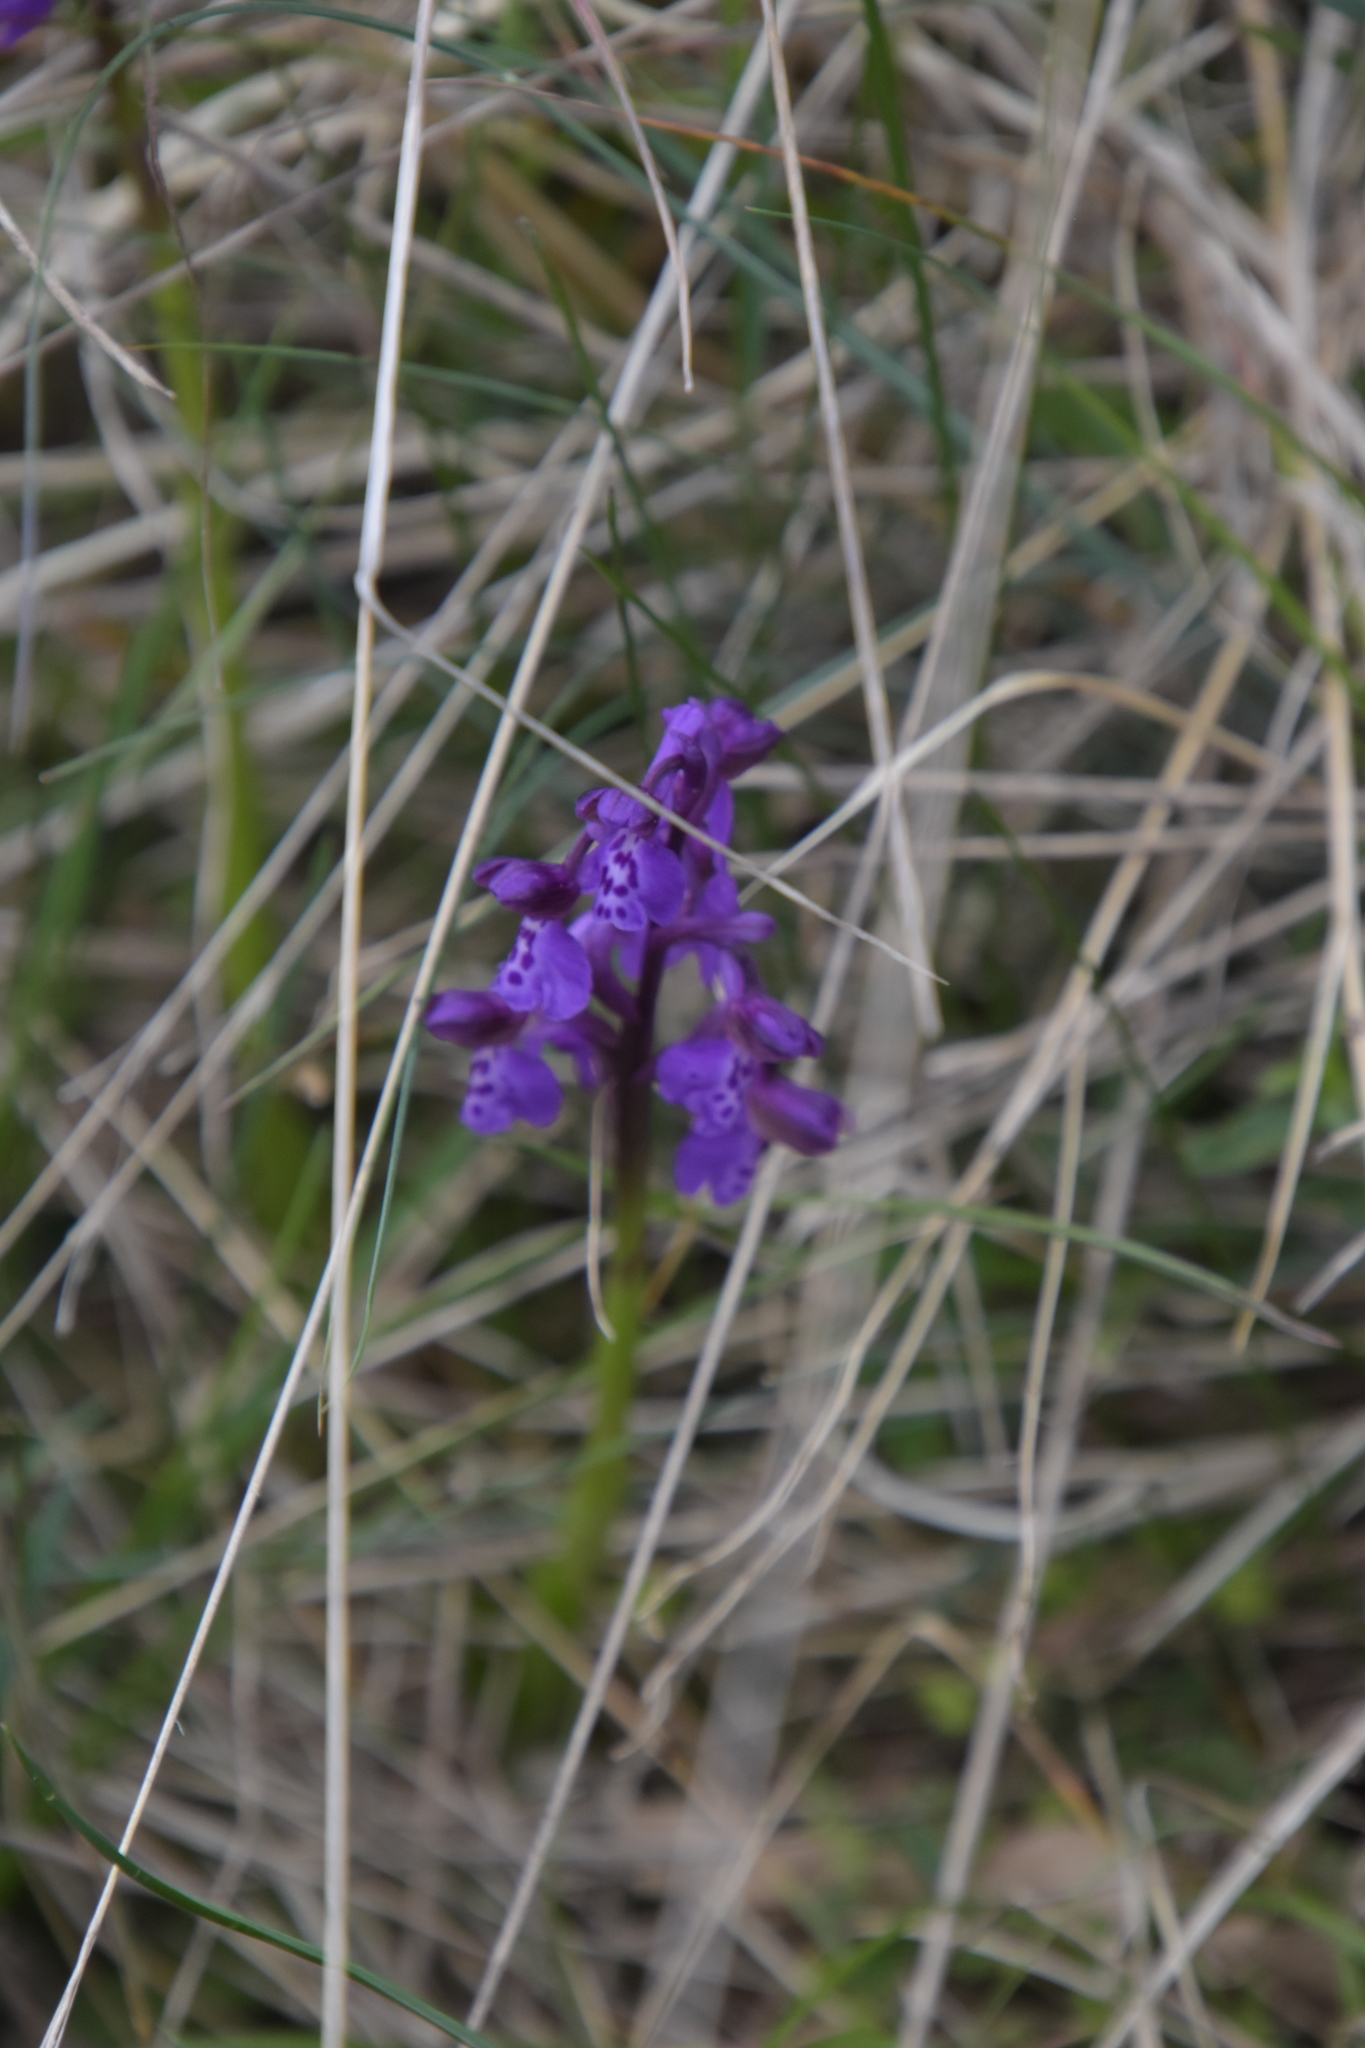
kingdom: Plantae
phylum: Tracheophyta
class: Liliopsida
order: Asparagales
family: Orchidaceae
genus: Anacamptis
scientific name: Anacamptis morio
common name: Green-winged orchid
